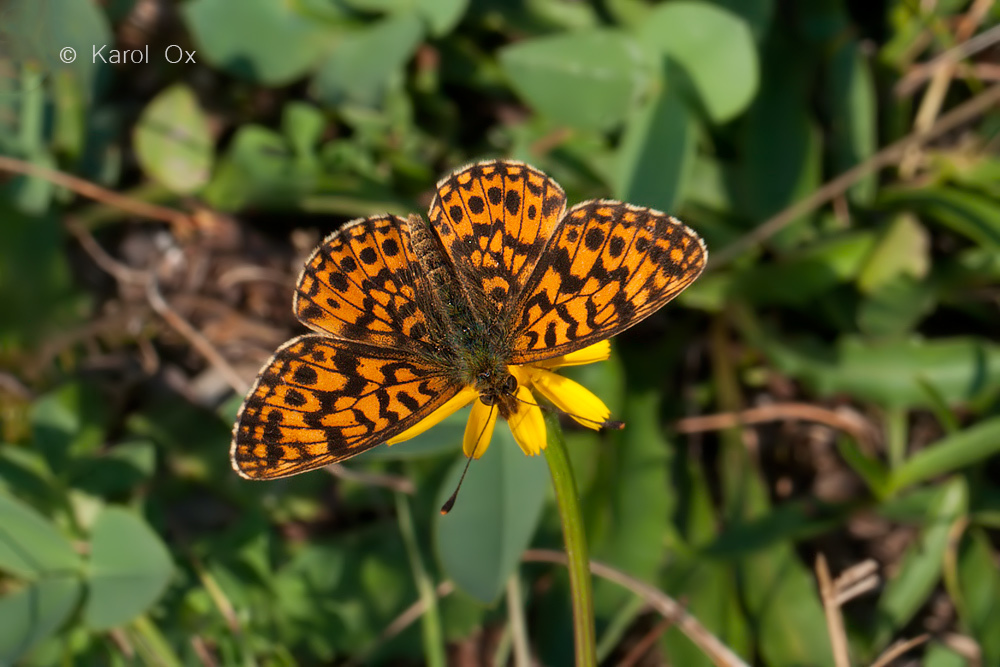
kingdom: Animalia
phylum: Arthropoda
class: Insecta
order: Lepidoptera
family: Nymphalidae
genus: Boloria
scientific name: Boloria dia
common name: Weaver's fritillary
